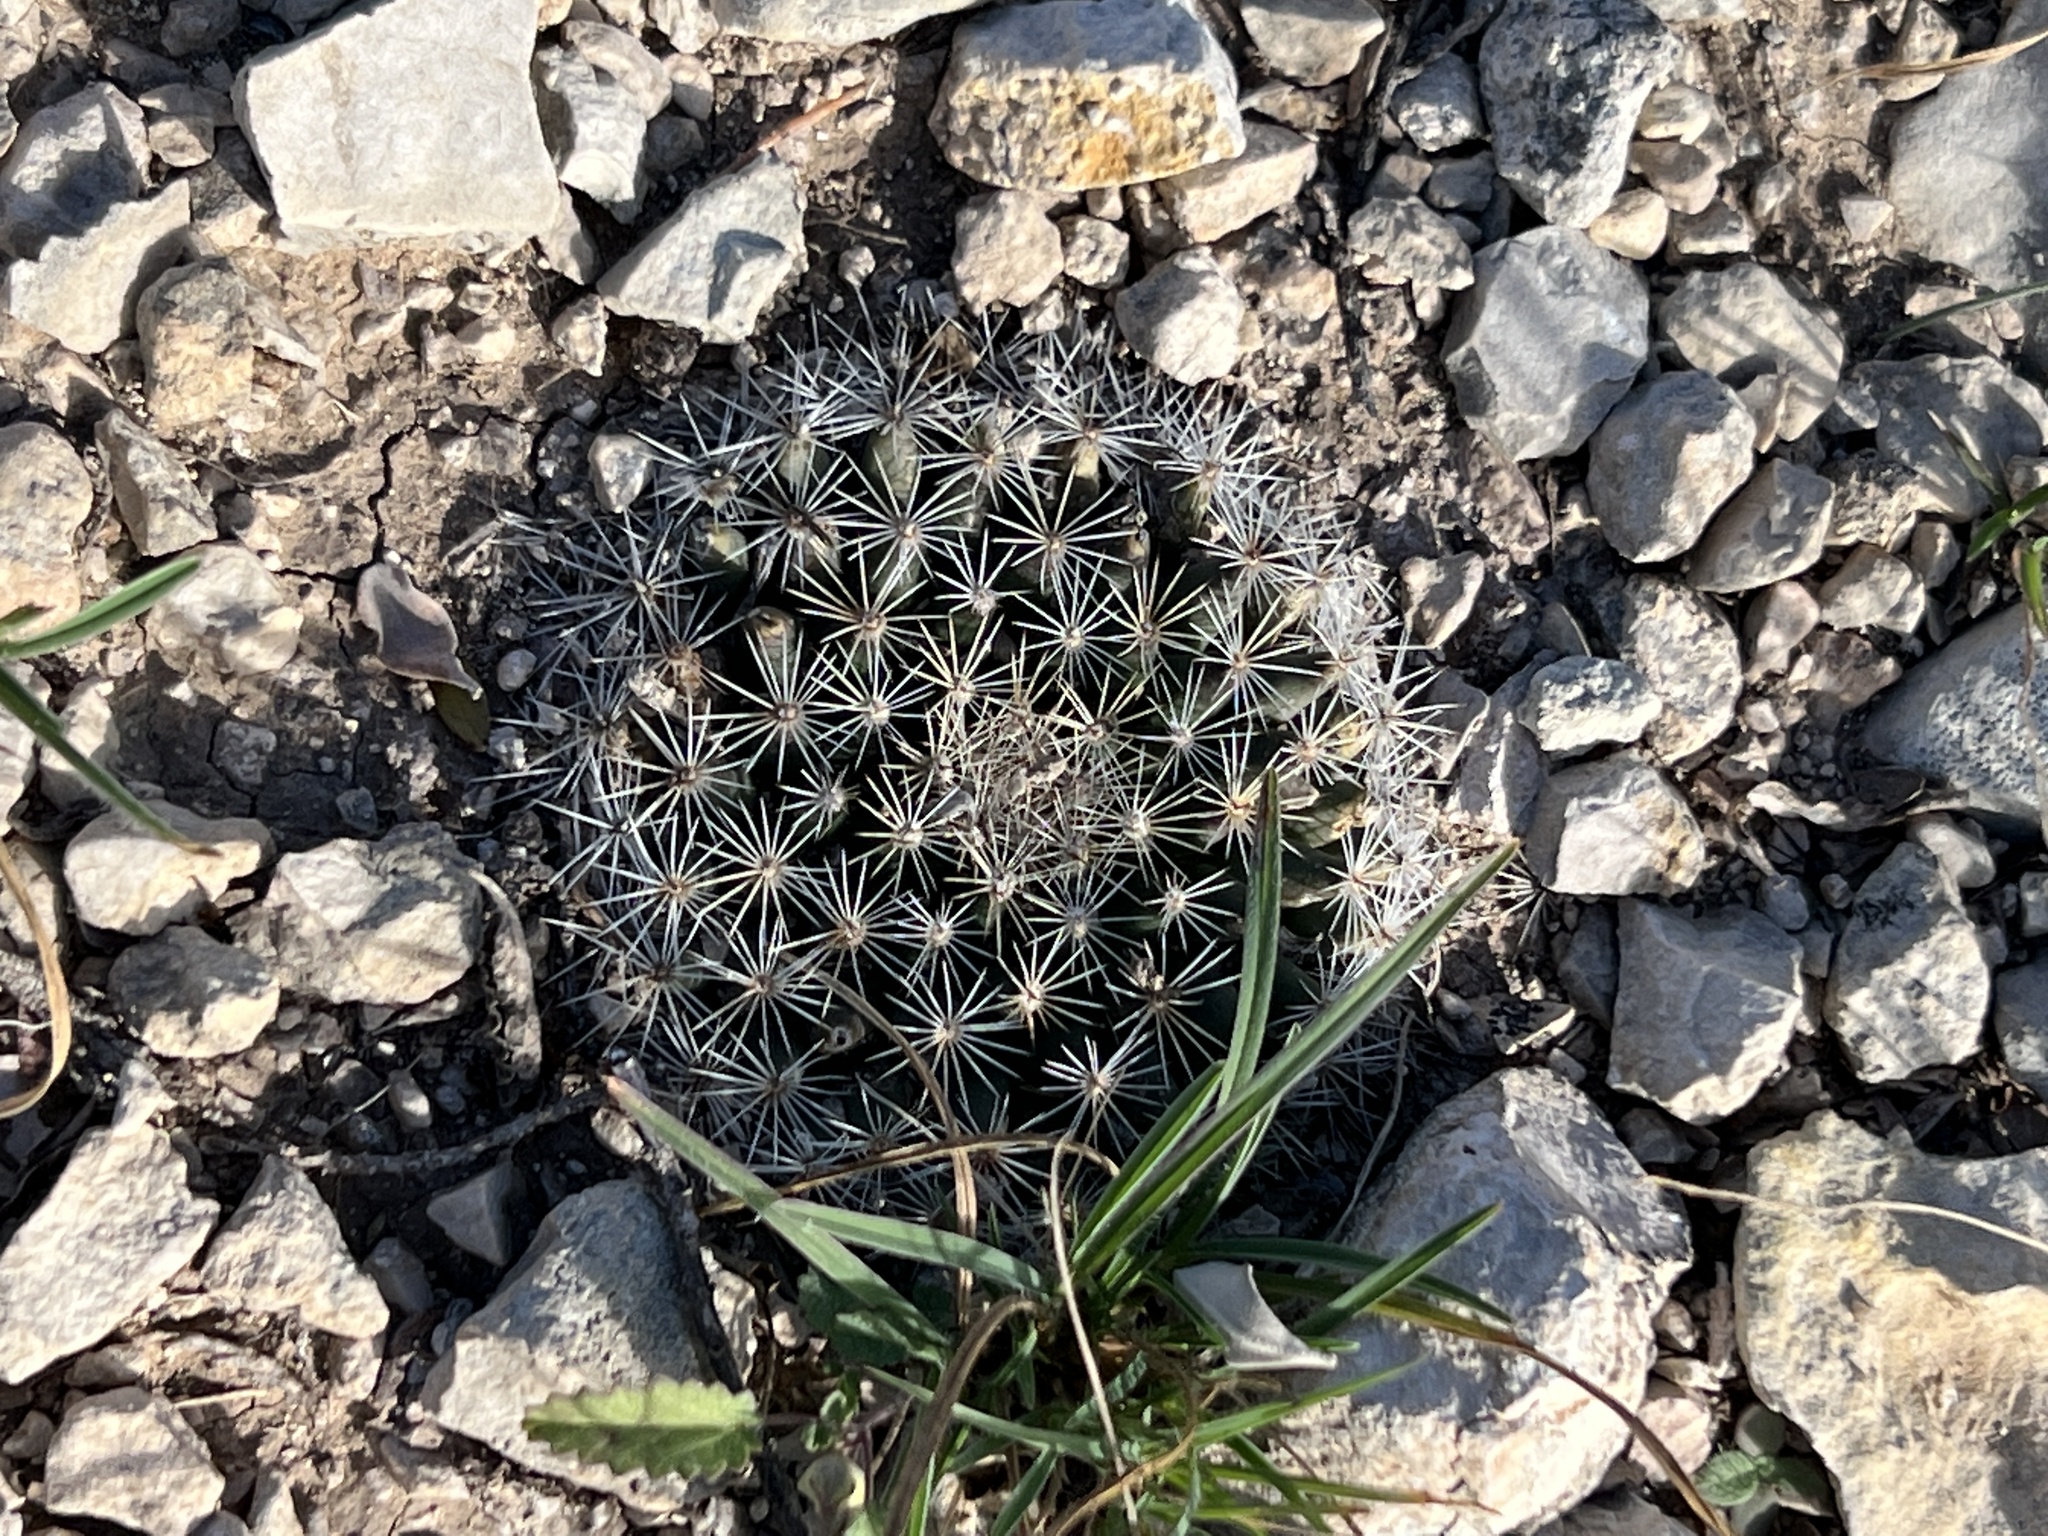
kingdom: Plantae
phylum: Tracheophyta
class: Magnoliopsida
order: Caryophyllales
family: Cactaceae
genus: Mammillaria
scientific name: Mammillaria heyderi
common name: Little nipple cactus
